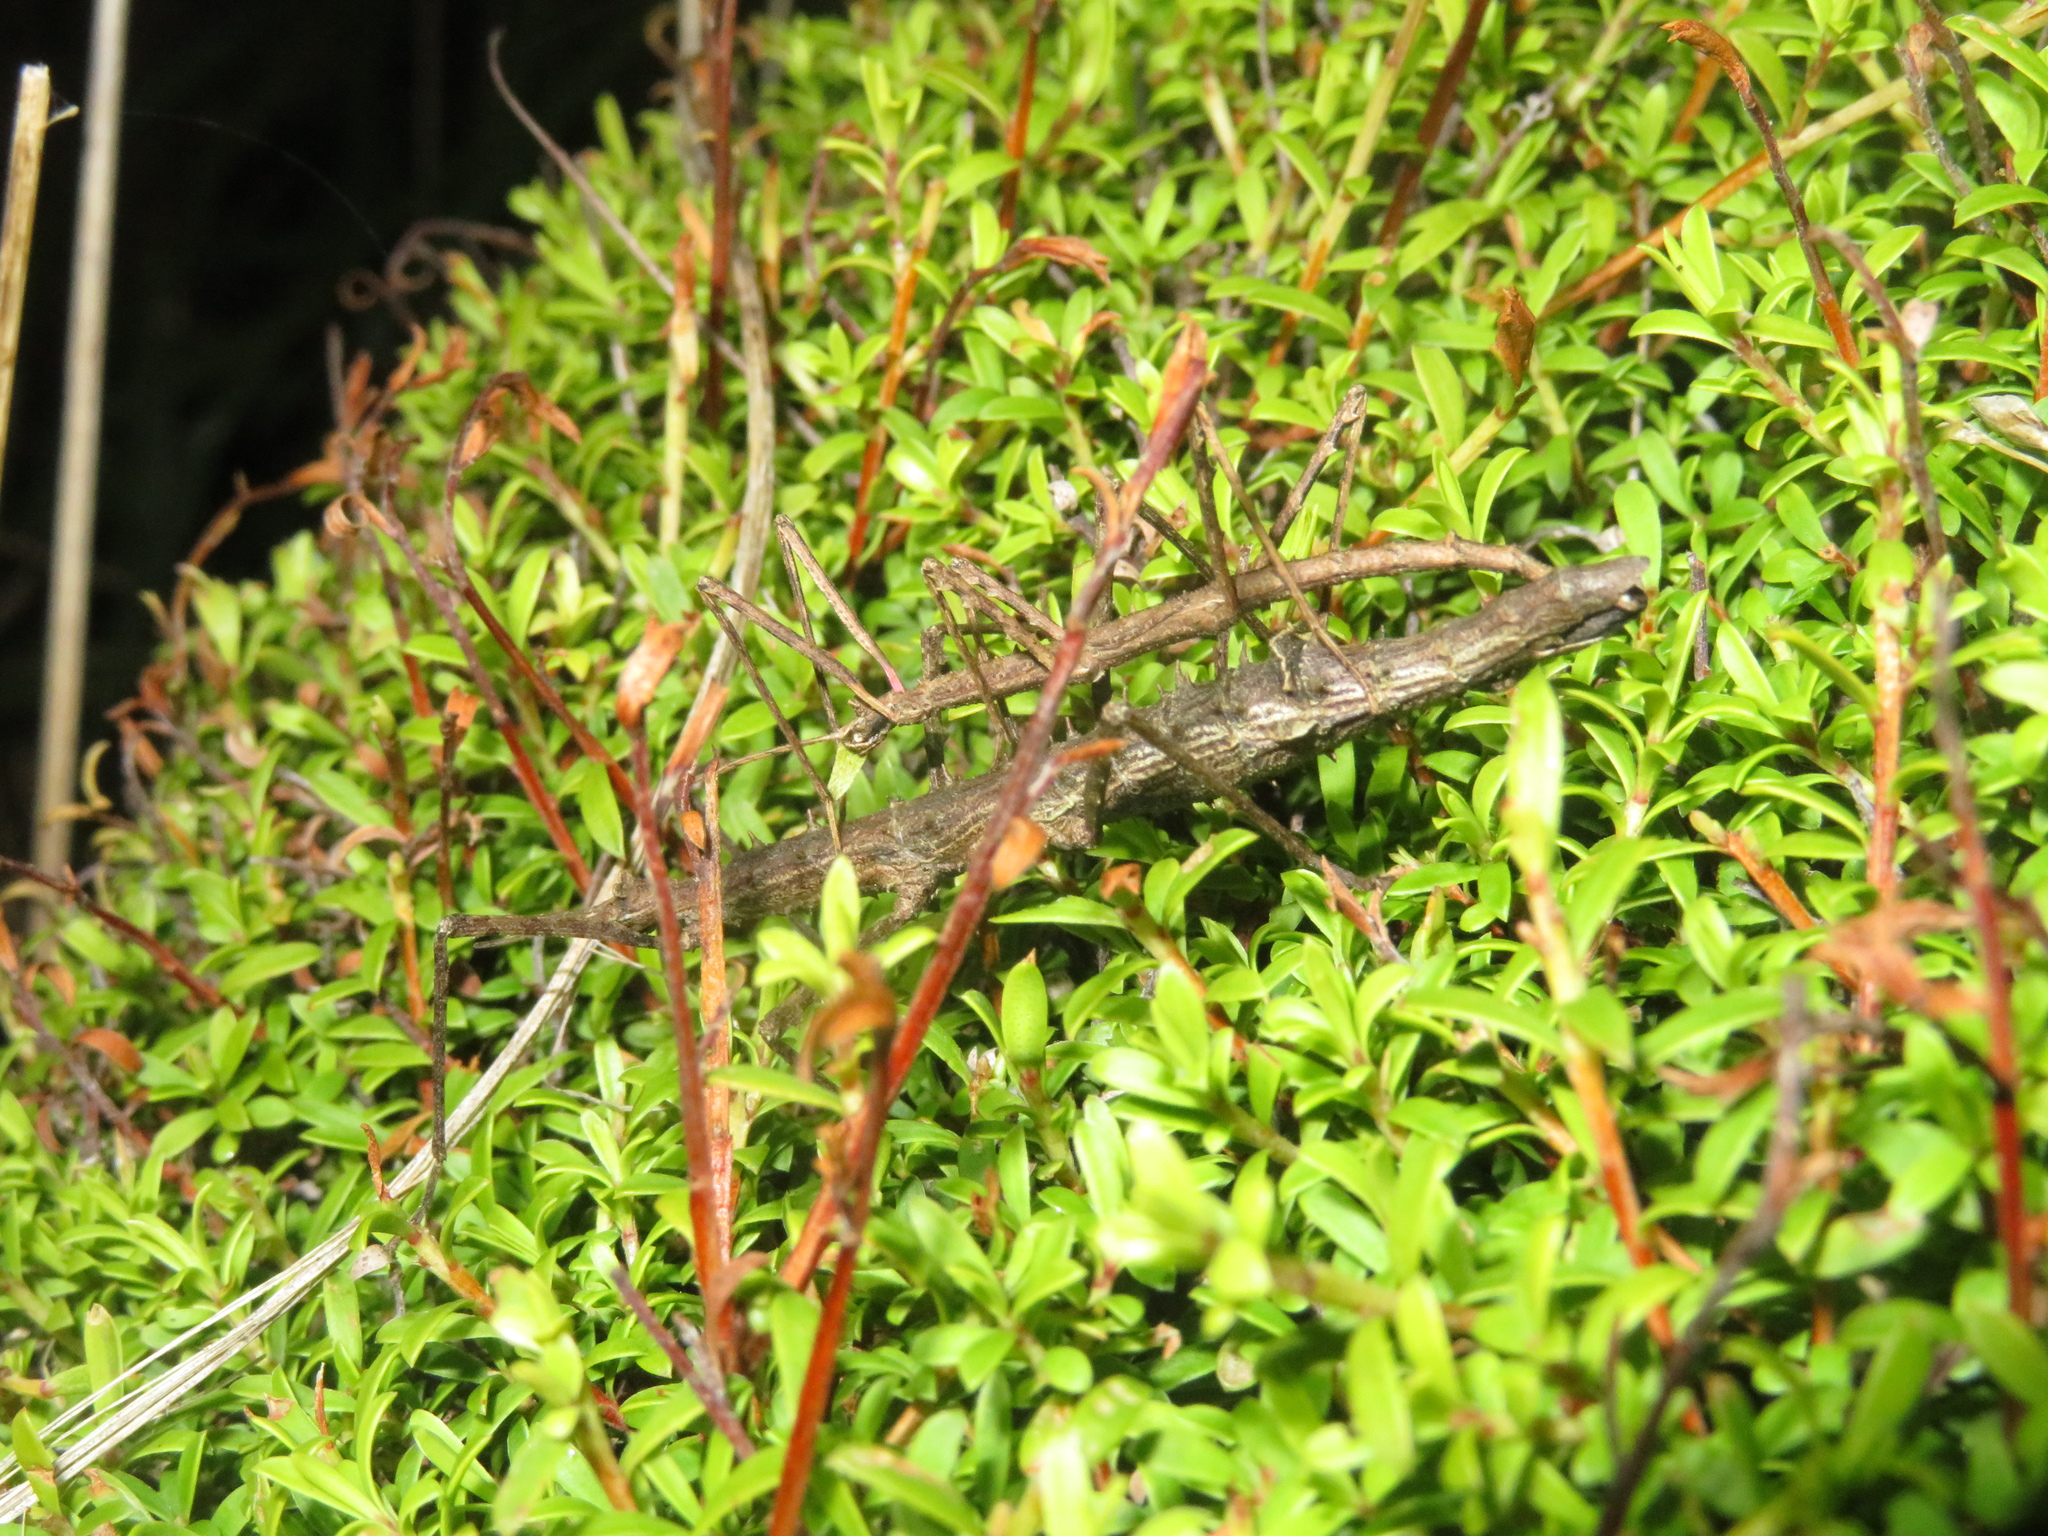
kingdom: Animalia
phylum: Arthropoda
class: Insecta
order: Phasmida
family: Phasmatidae
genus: Micrarchus
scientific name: Micrarchus hystriculeus
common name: The lesser spiny stick insect
